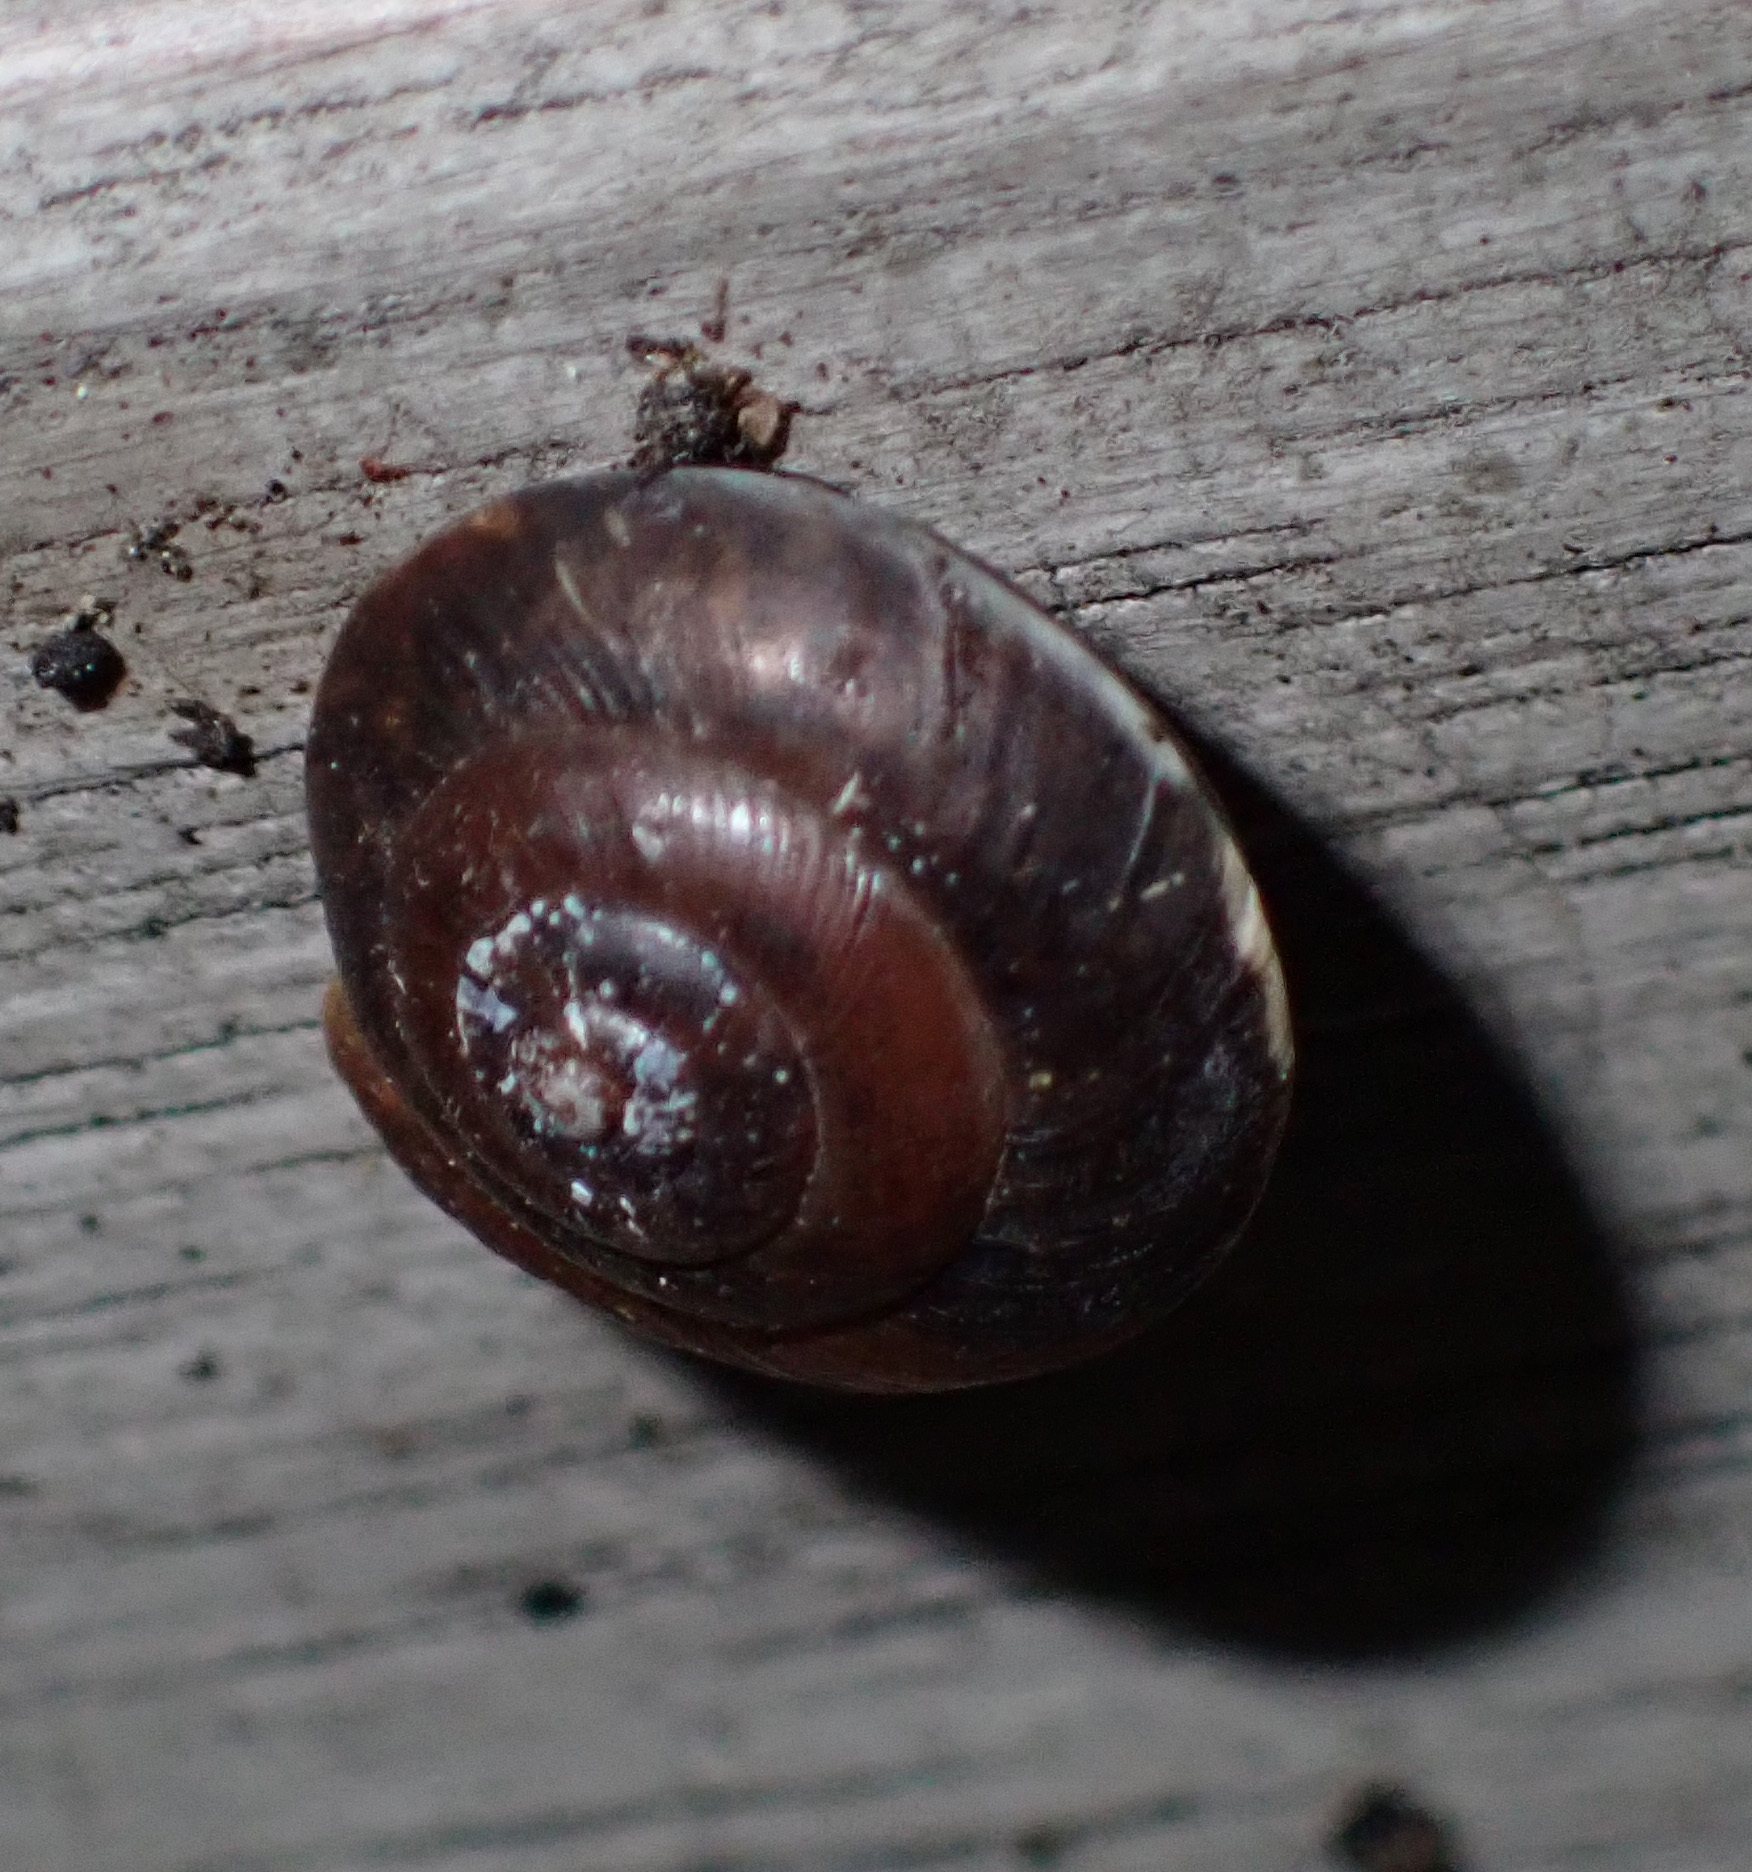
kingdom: Animalia
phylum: Mollusca
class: Gastropoda
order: Stylommatophora
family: Hygromiidae
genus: Hygromia
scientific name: Hygromia cinctella
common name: Girdled snail
